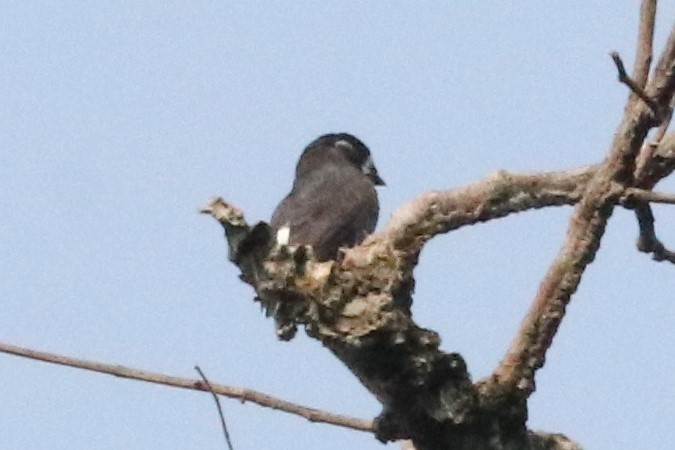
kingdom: Animalia
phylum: Chordata
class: Aves
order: Passeriformes
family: Cotingidae
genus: Iodopleura
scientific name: Iodopleura isabellae
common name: White-browed purpletuft
